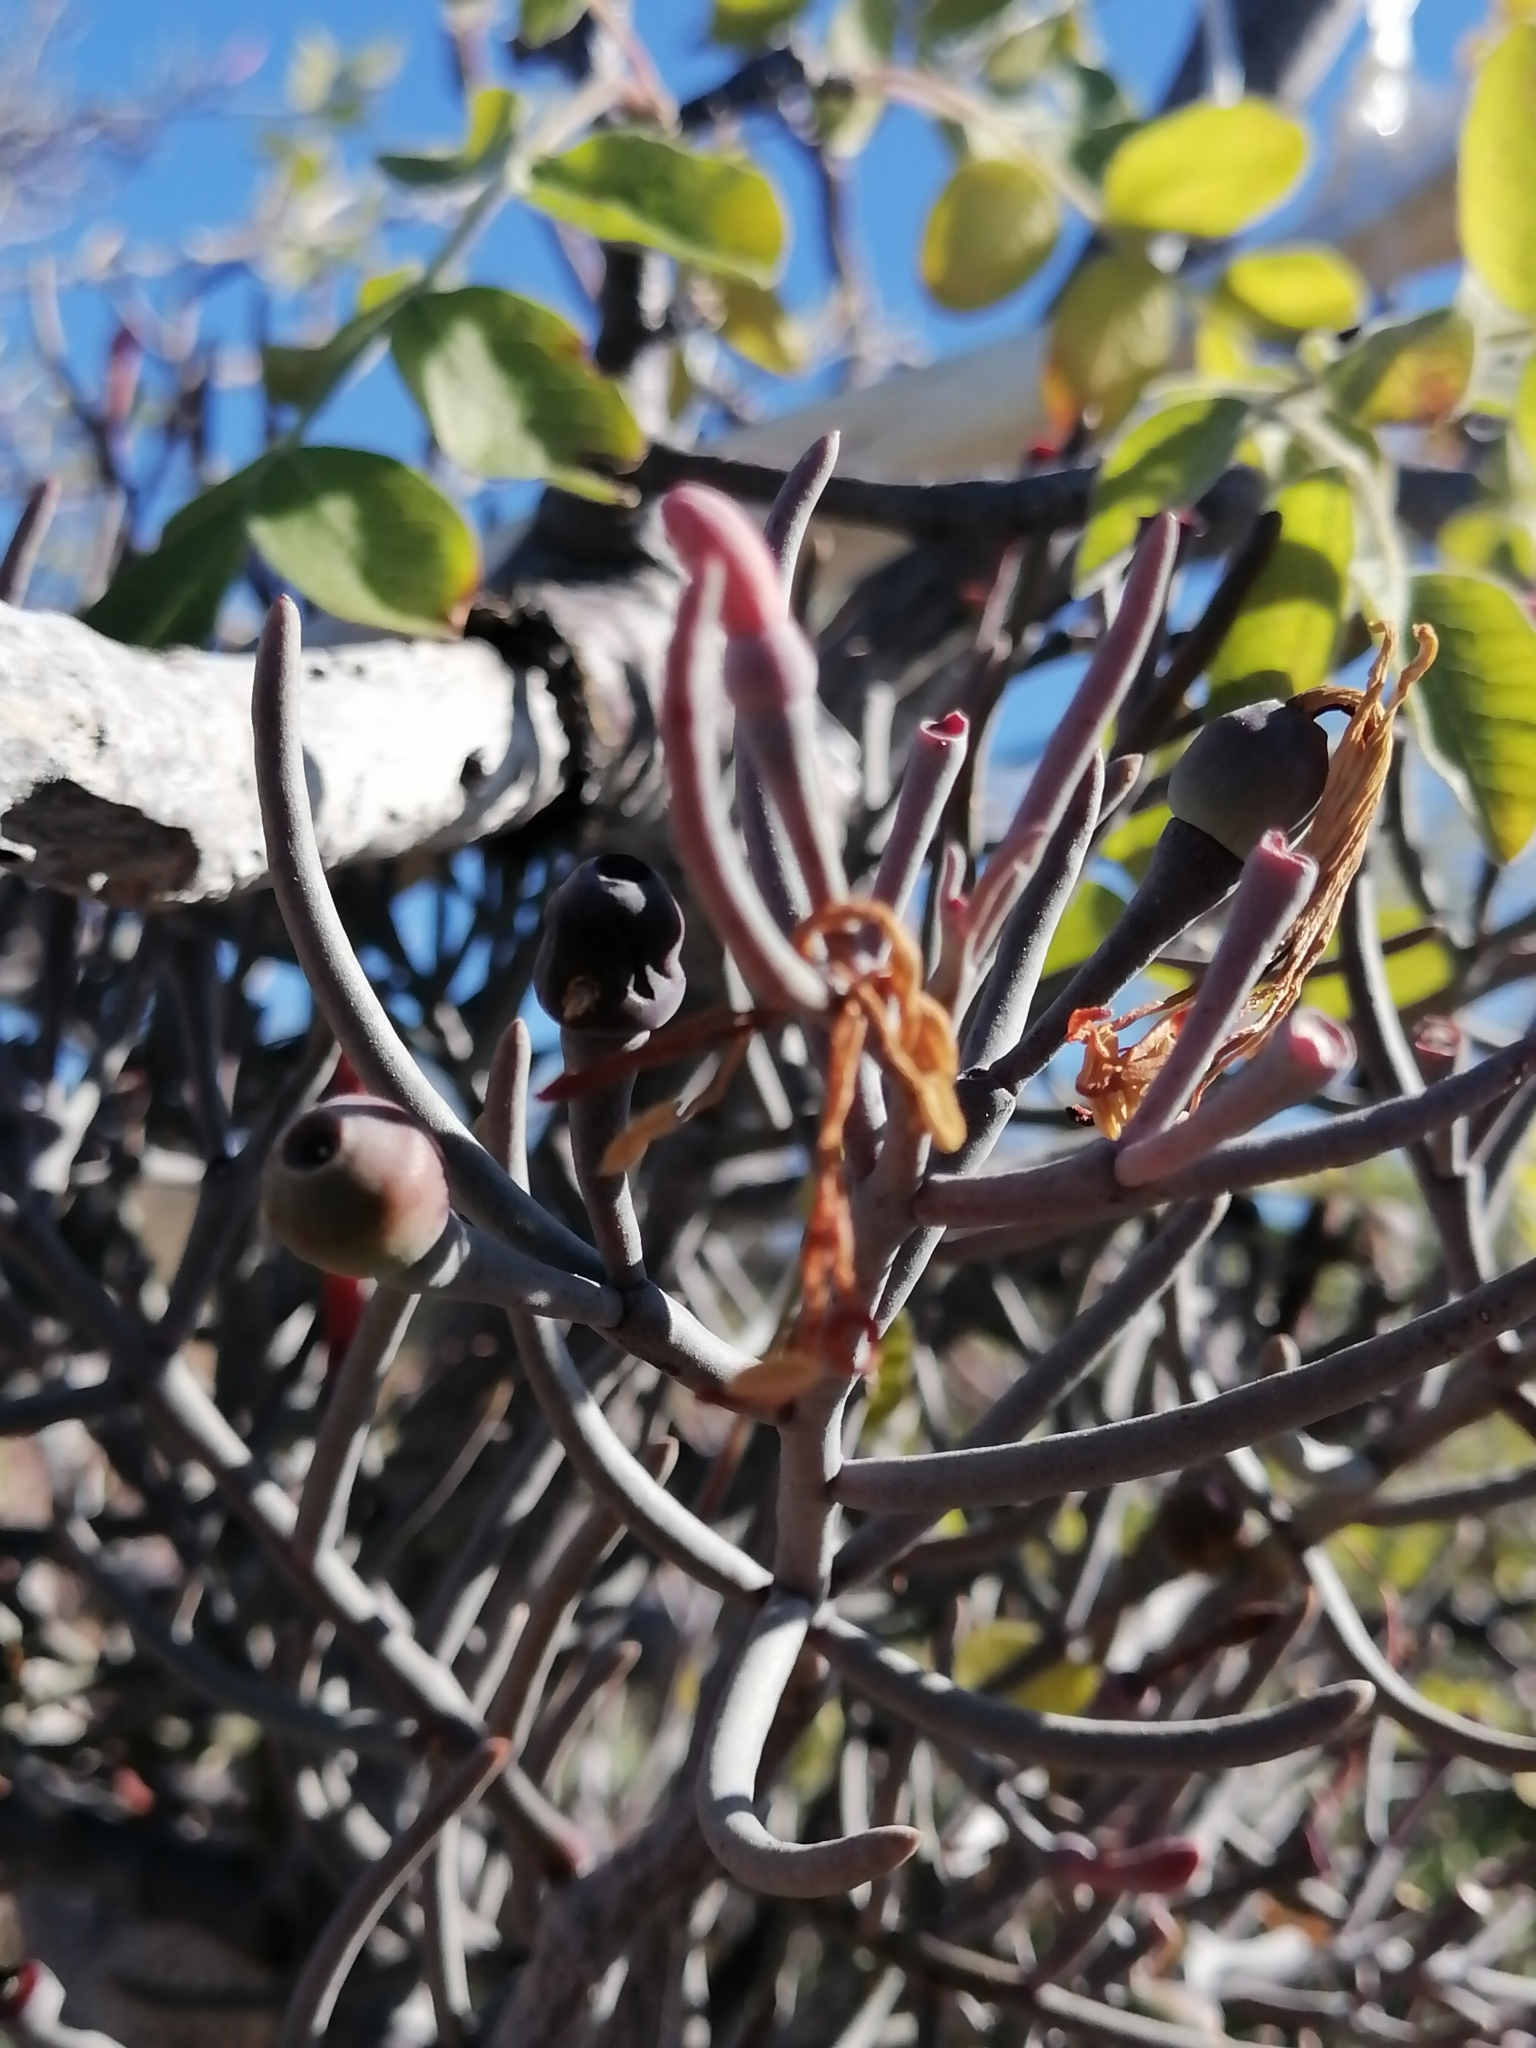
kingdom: Plantae
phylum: Tracheophyta
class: Magnoliopsida
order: Santalales
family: Loranthaceae
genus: Psittacanthus
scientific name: Psittacanthus sonorae
